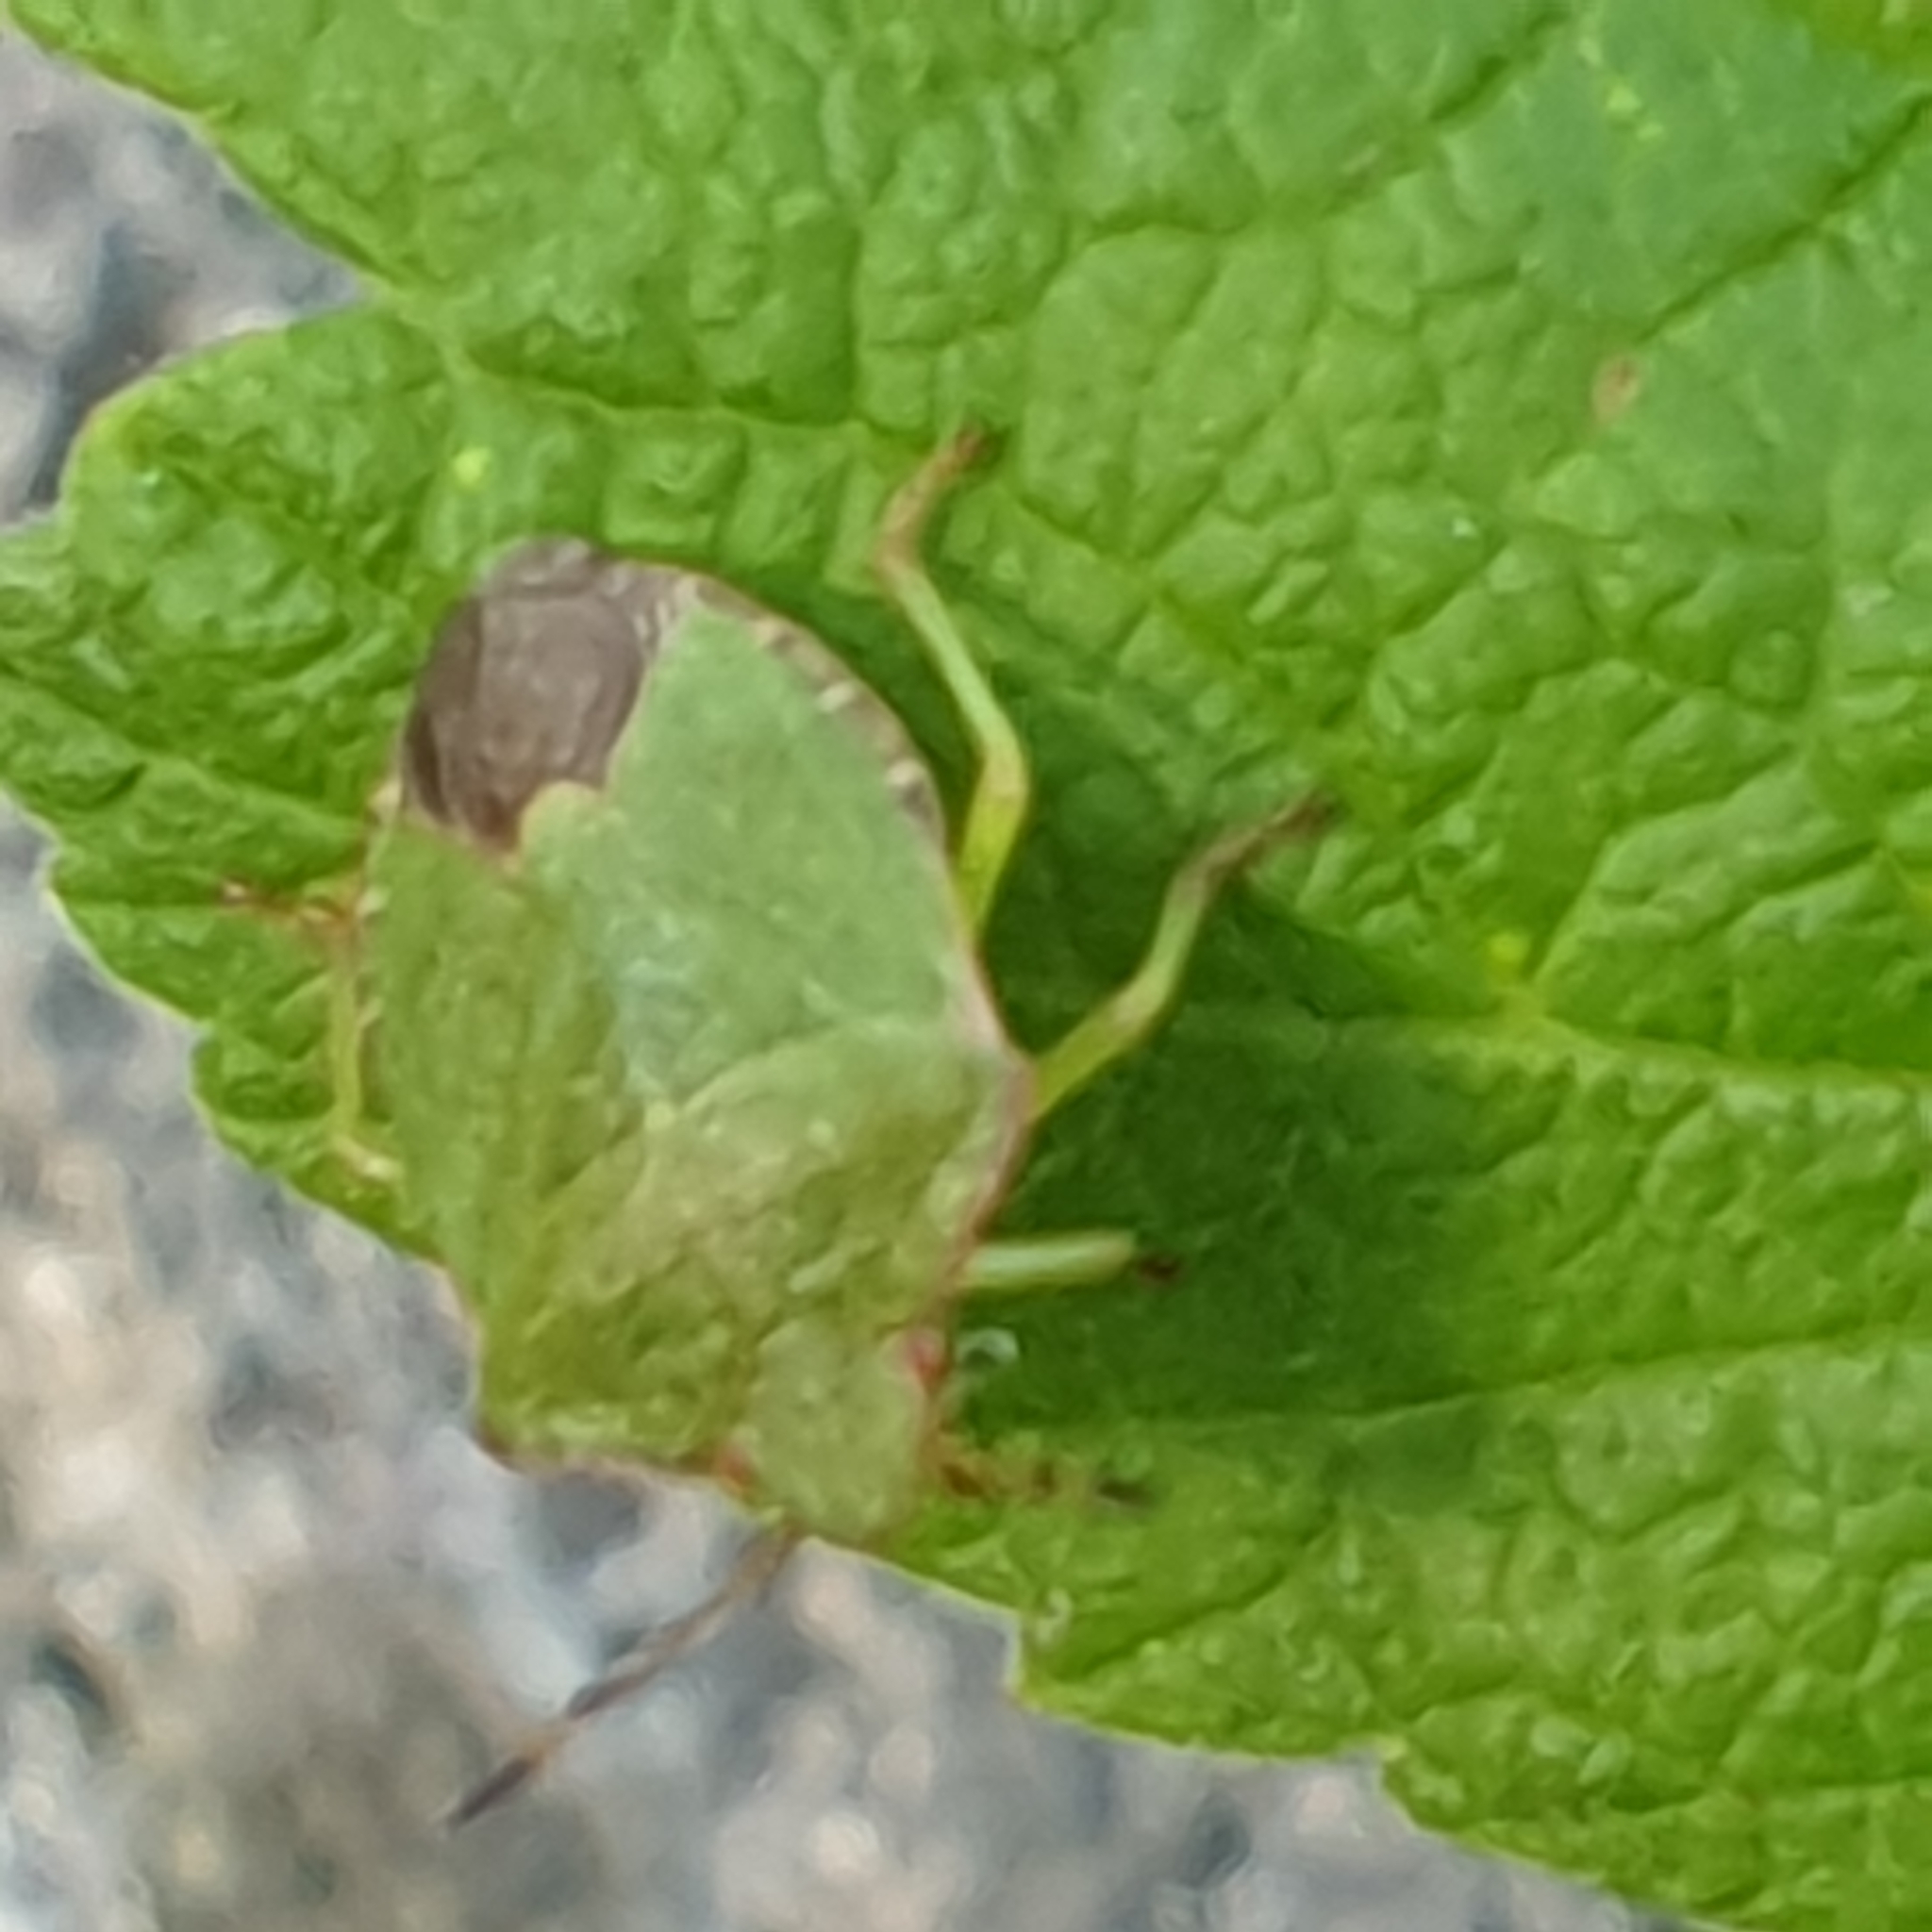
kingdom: Animalia
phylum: Arthropoda
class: Insecta
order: Hemiptera
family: Pentatomidae
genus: Palomena
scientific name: Palomena prasina
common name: Green shieldbug
